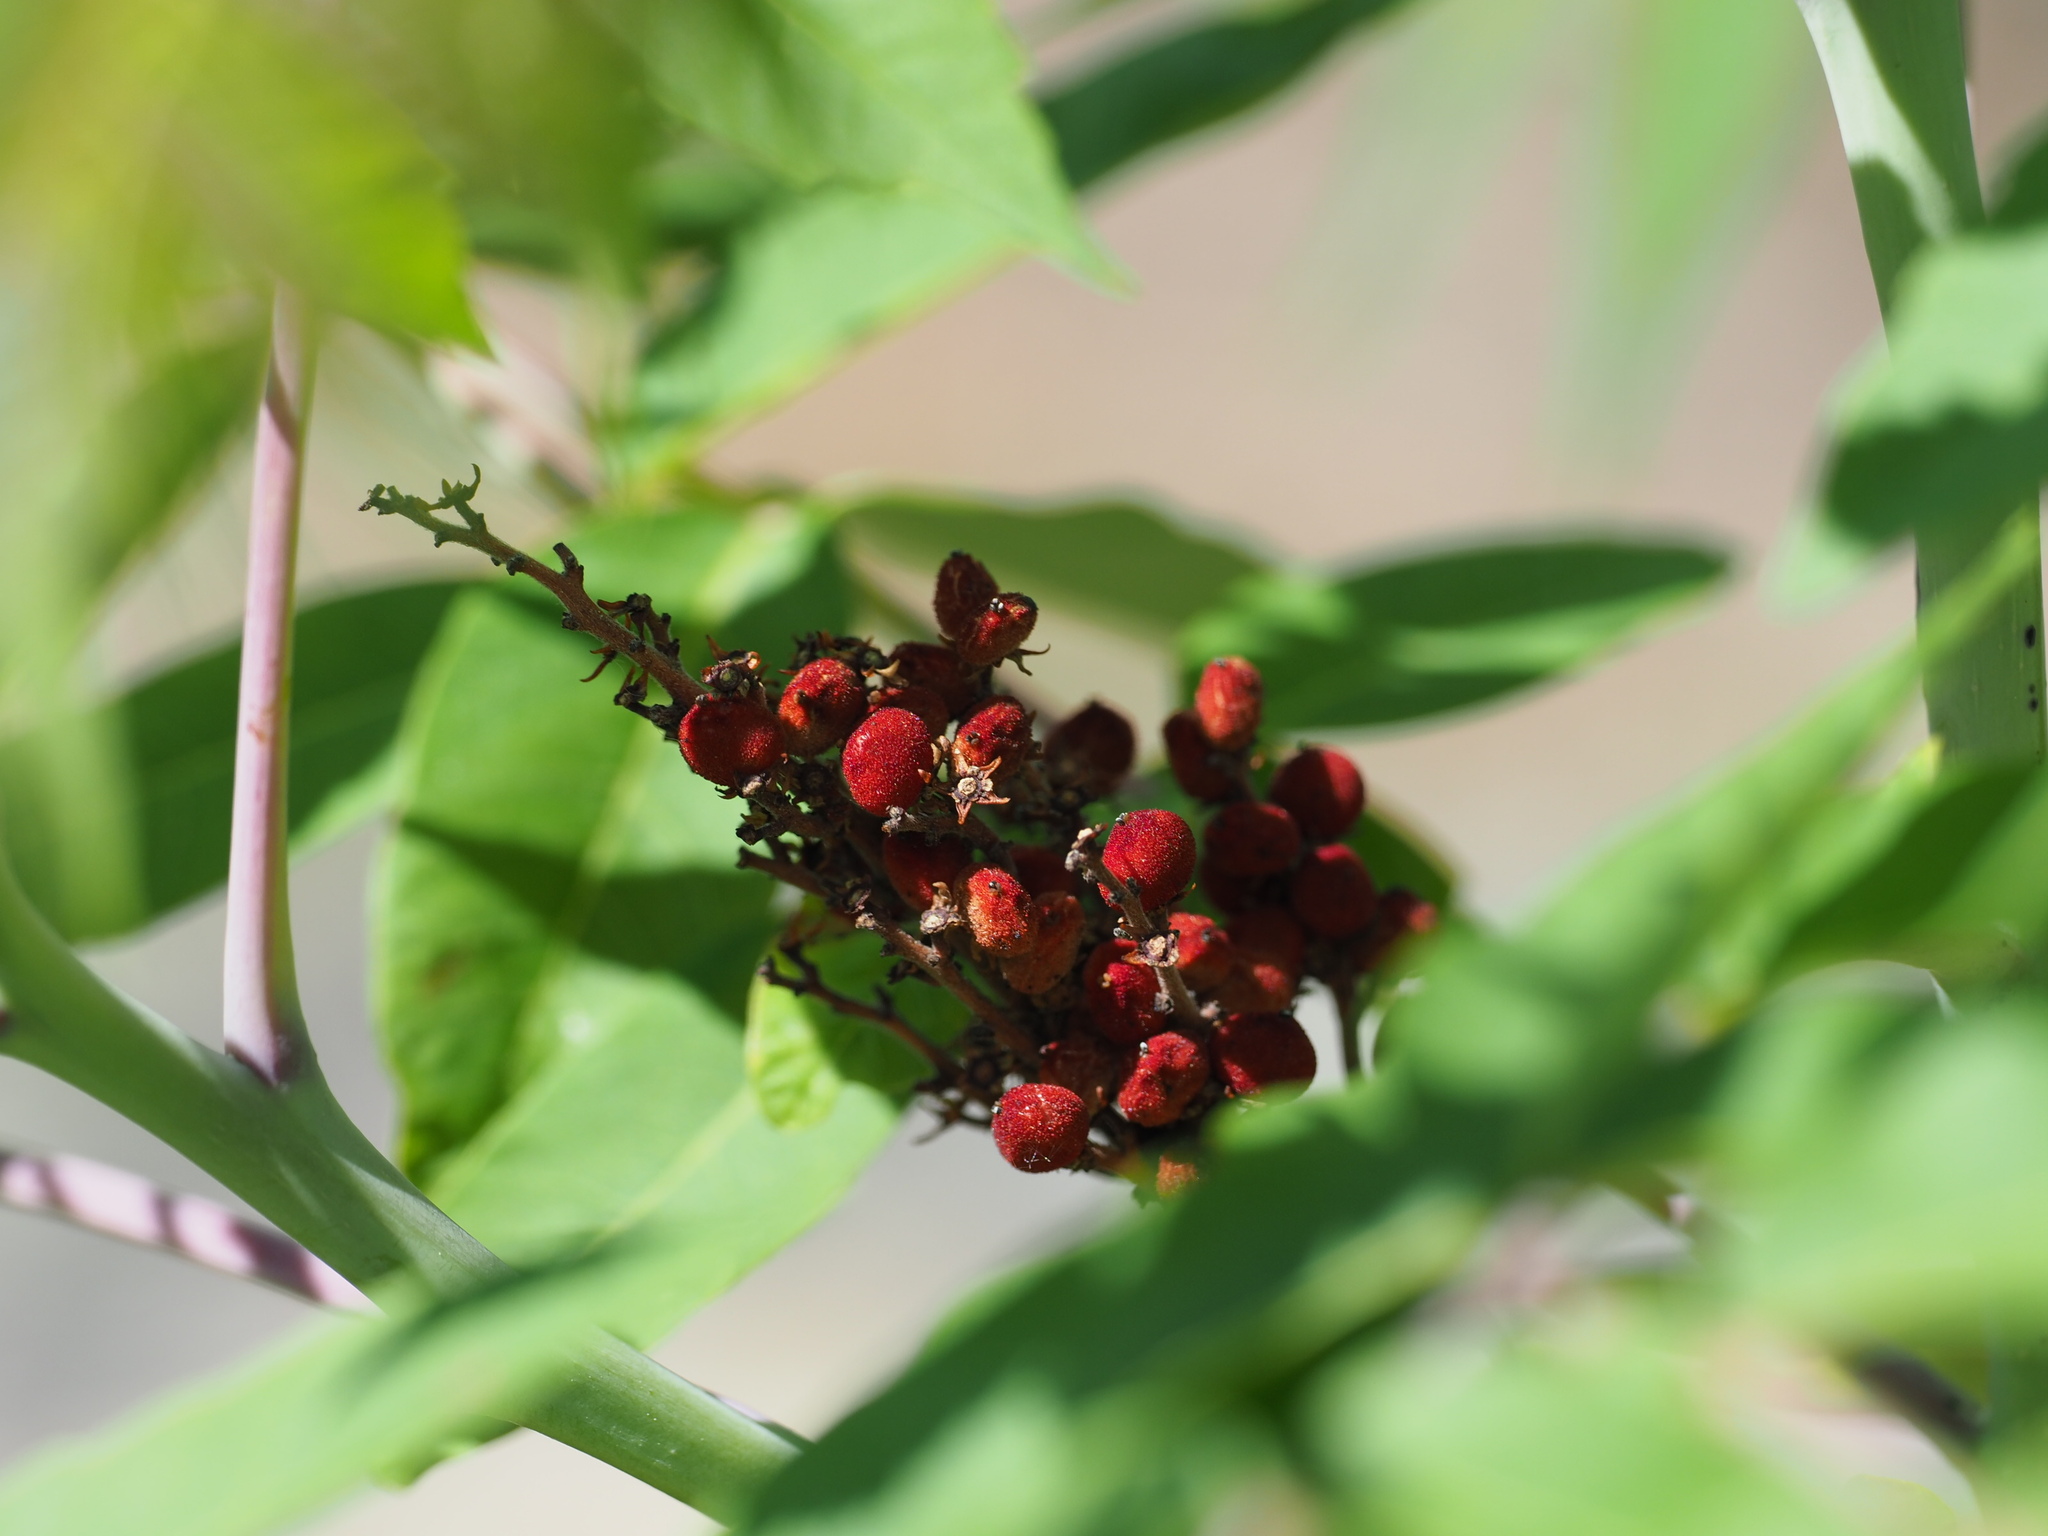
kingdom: Plantae
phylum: Tracheophyta
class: Magnoliopsida
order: Sapindales
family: Anacardiaceae
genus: Rhus
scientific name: Rhus glabra
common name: Scarlet sumac
